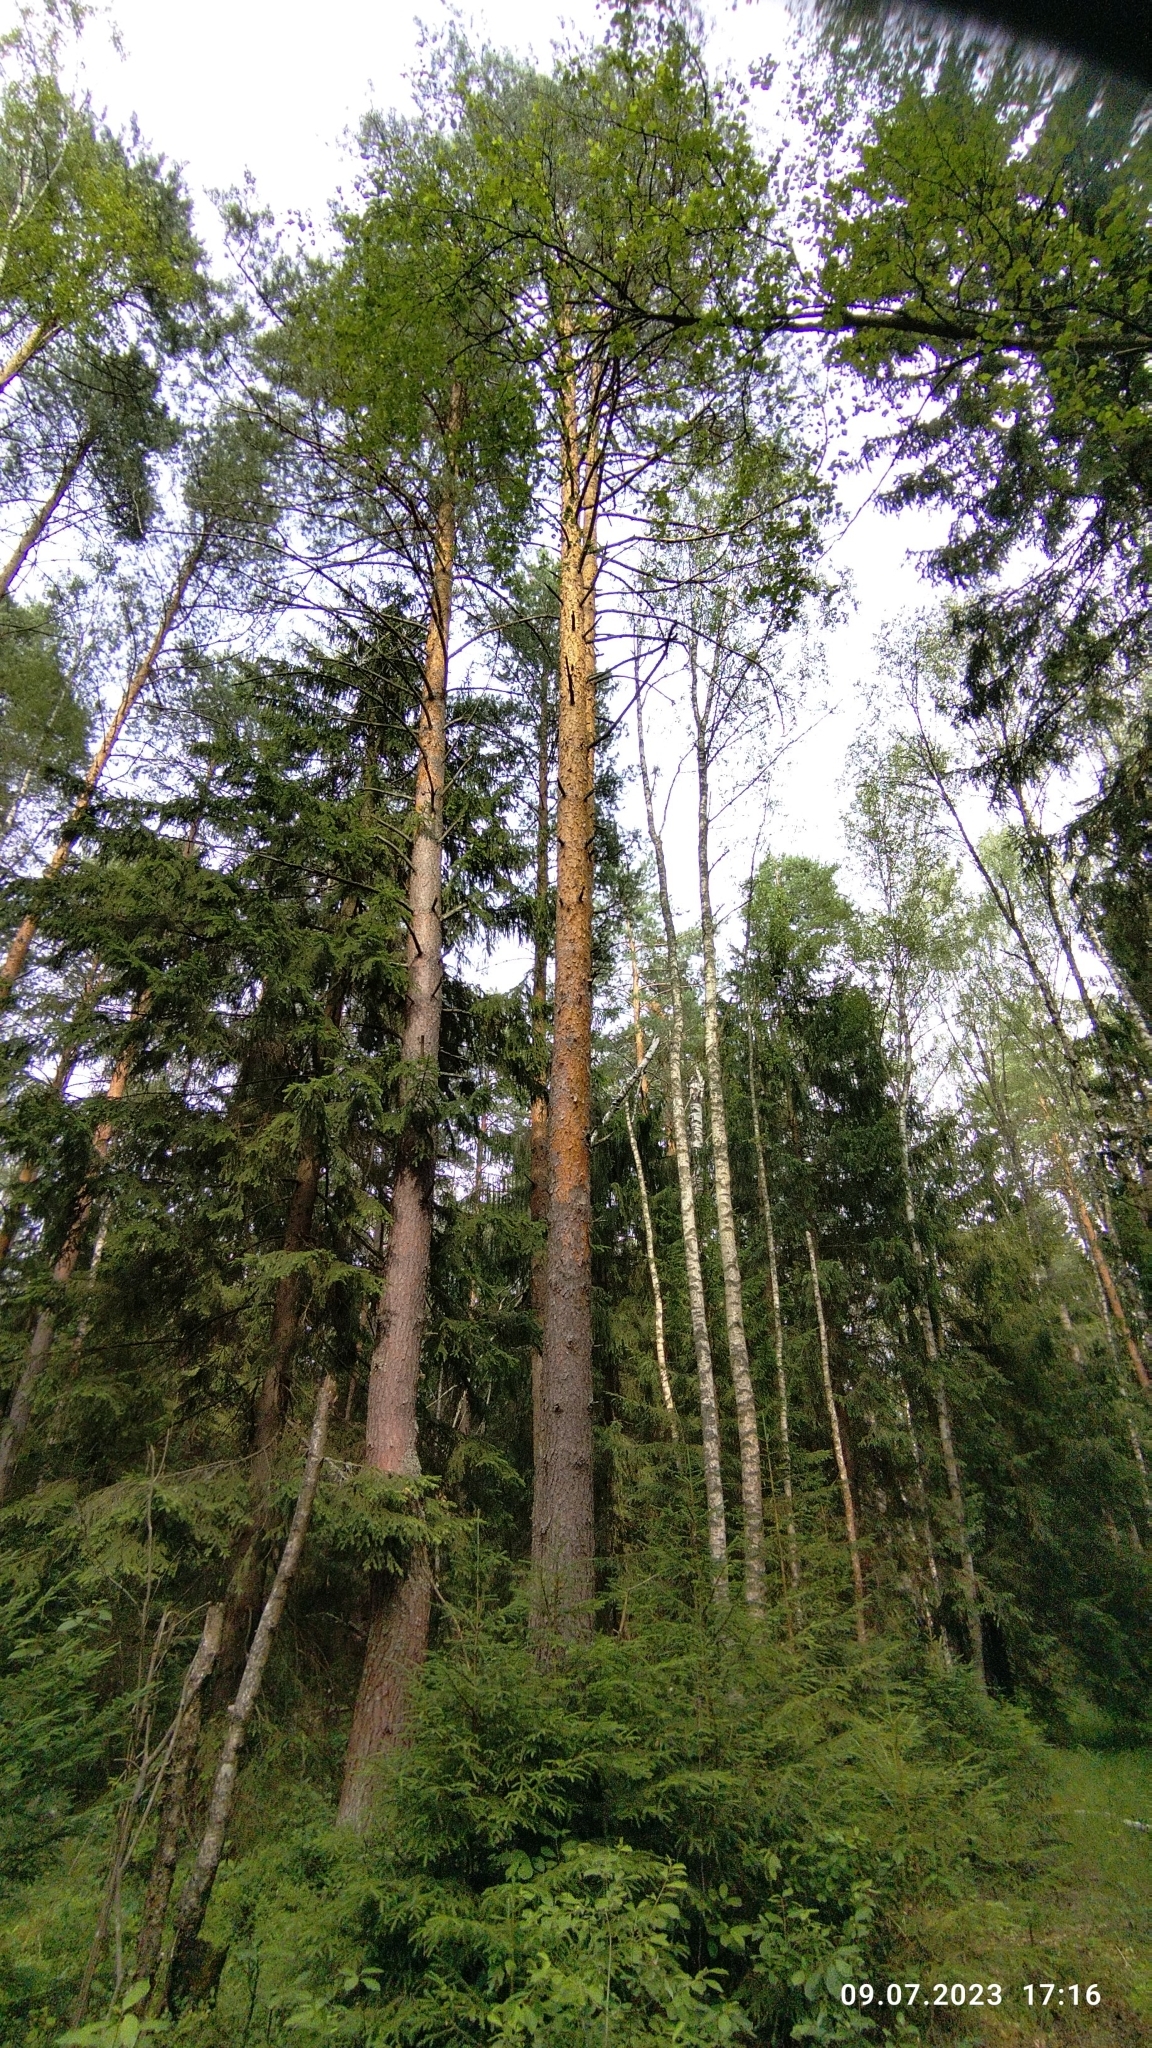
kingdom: Plantae
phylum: Tracheophyta
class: Pinopsida
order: Pinales
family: Pinaceae
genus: Pinus
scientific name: Pinus sylvestris
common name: Scots pine
